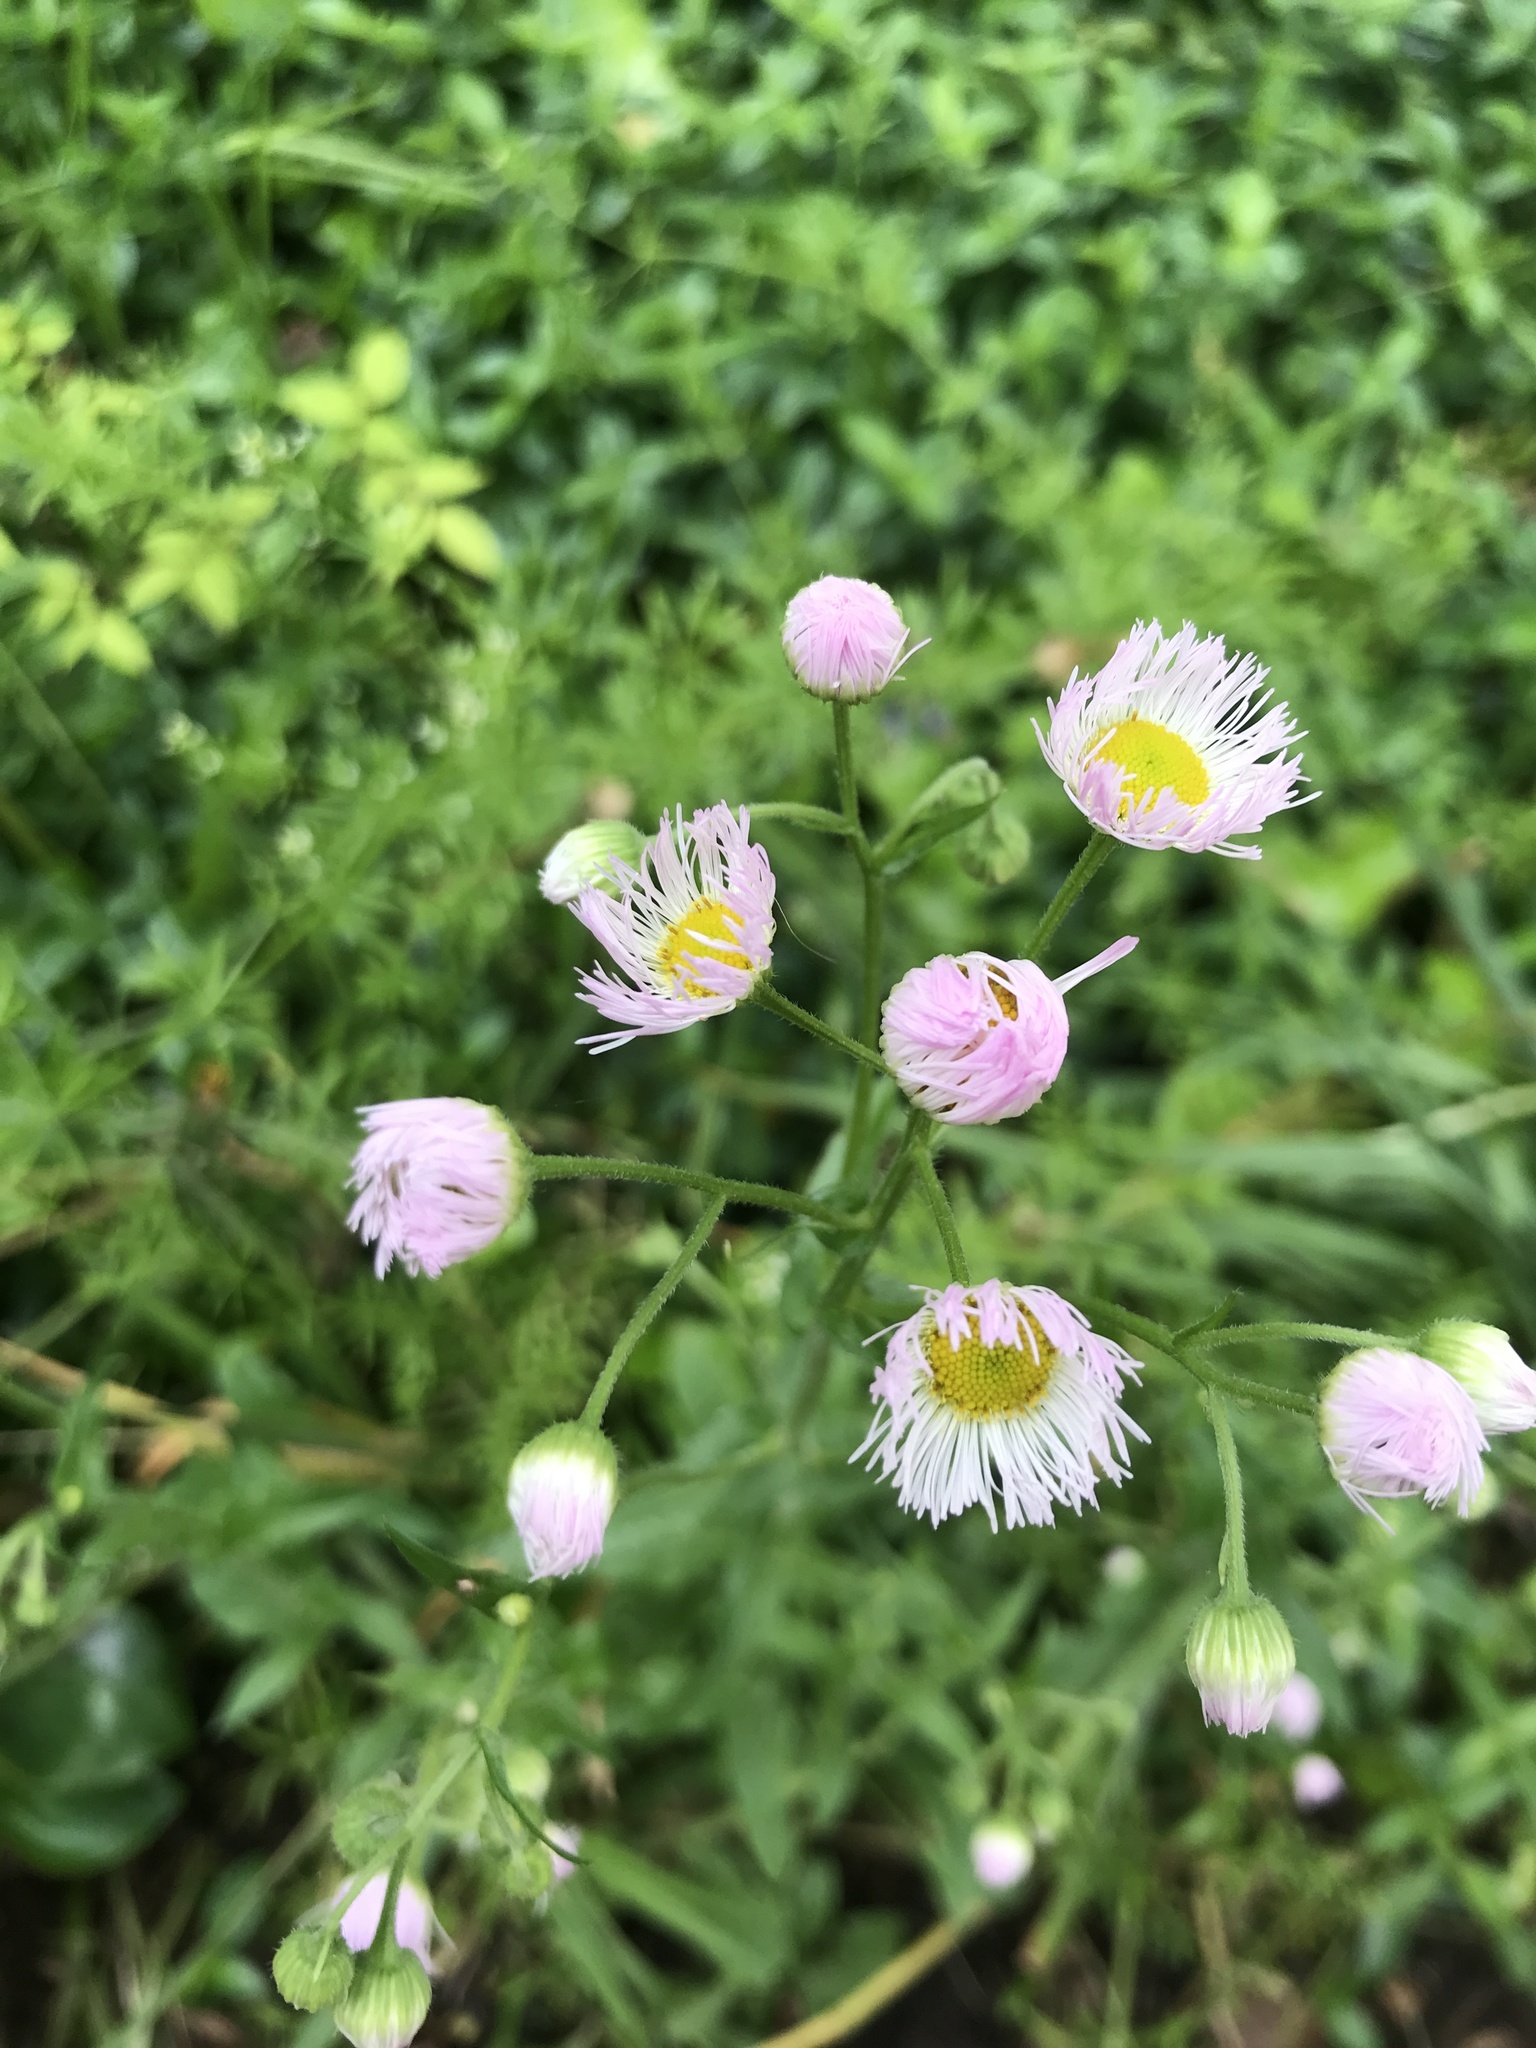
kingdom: Plantae
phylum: Tracheophyta
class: Magnoliopsida
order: Asterales
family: Asteraceae
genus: Erigeron
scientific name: Erigeron philadelphicus
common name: Robin's-plantain
